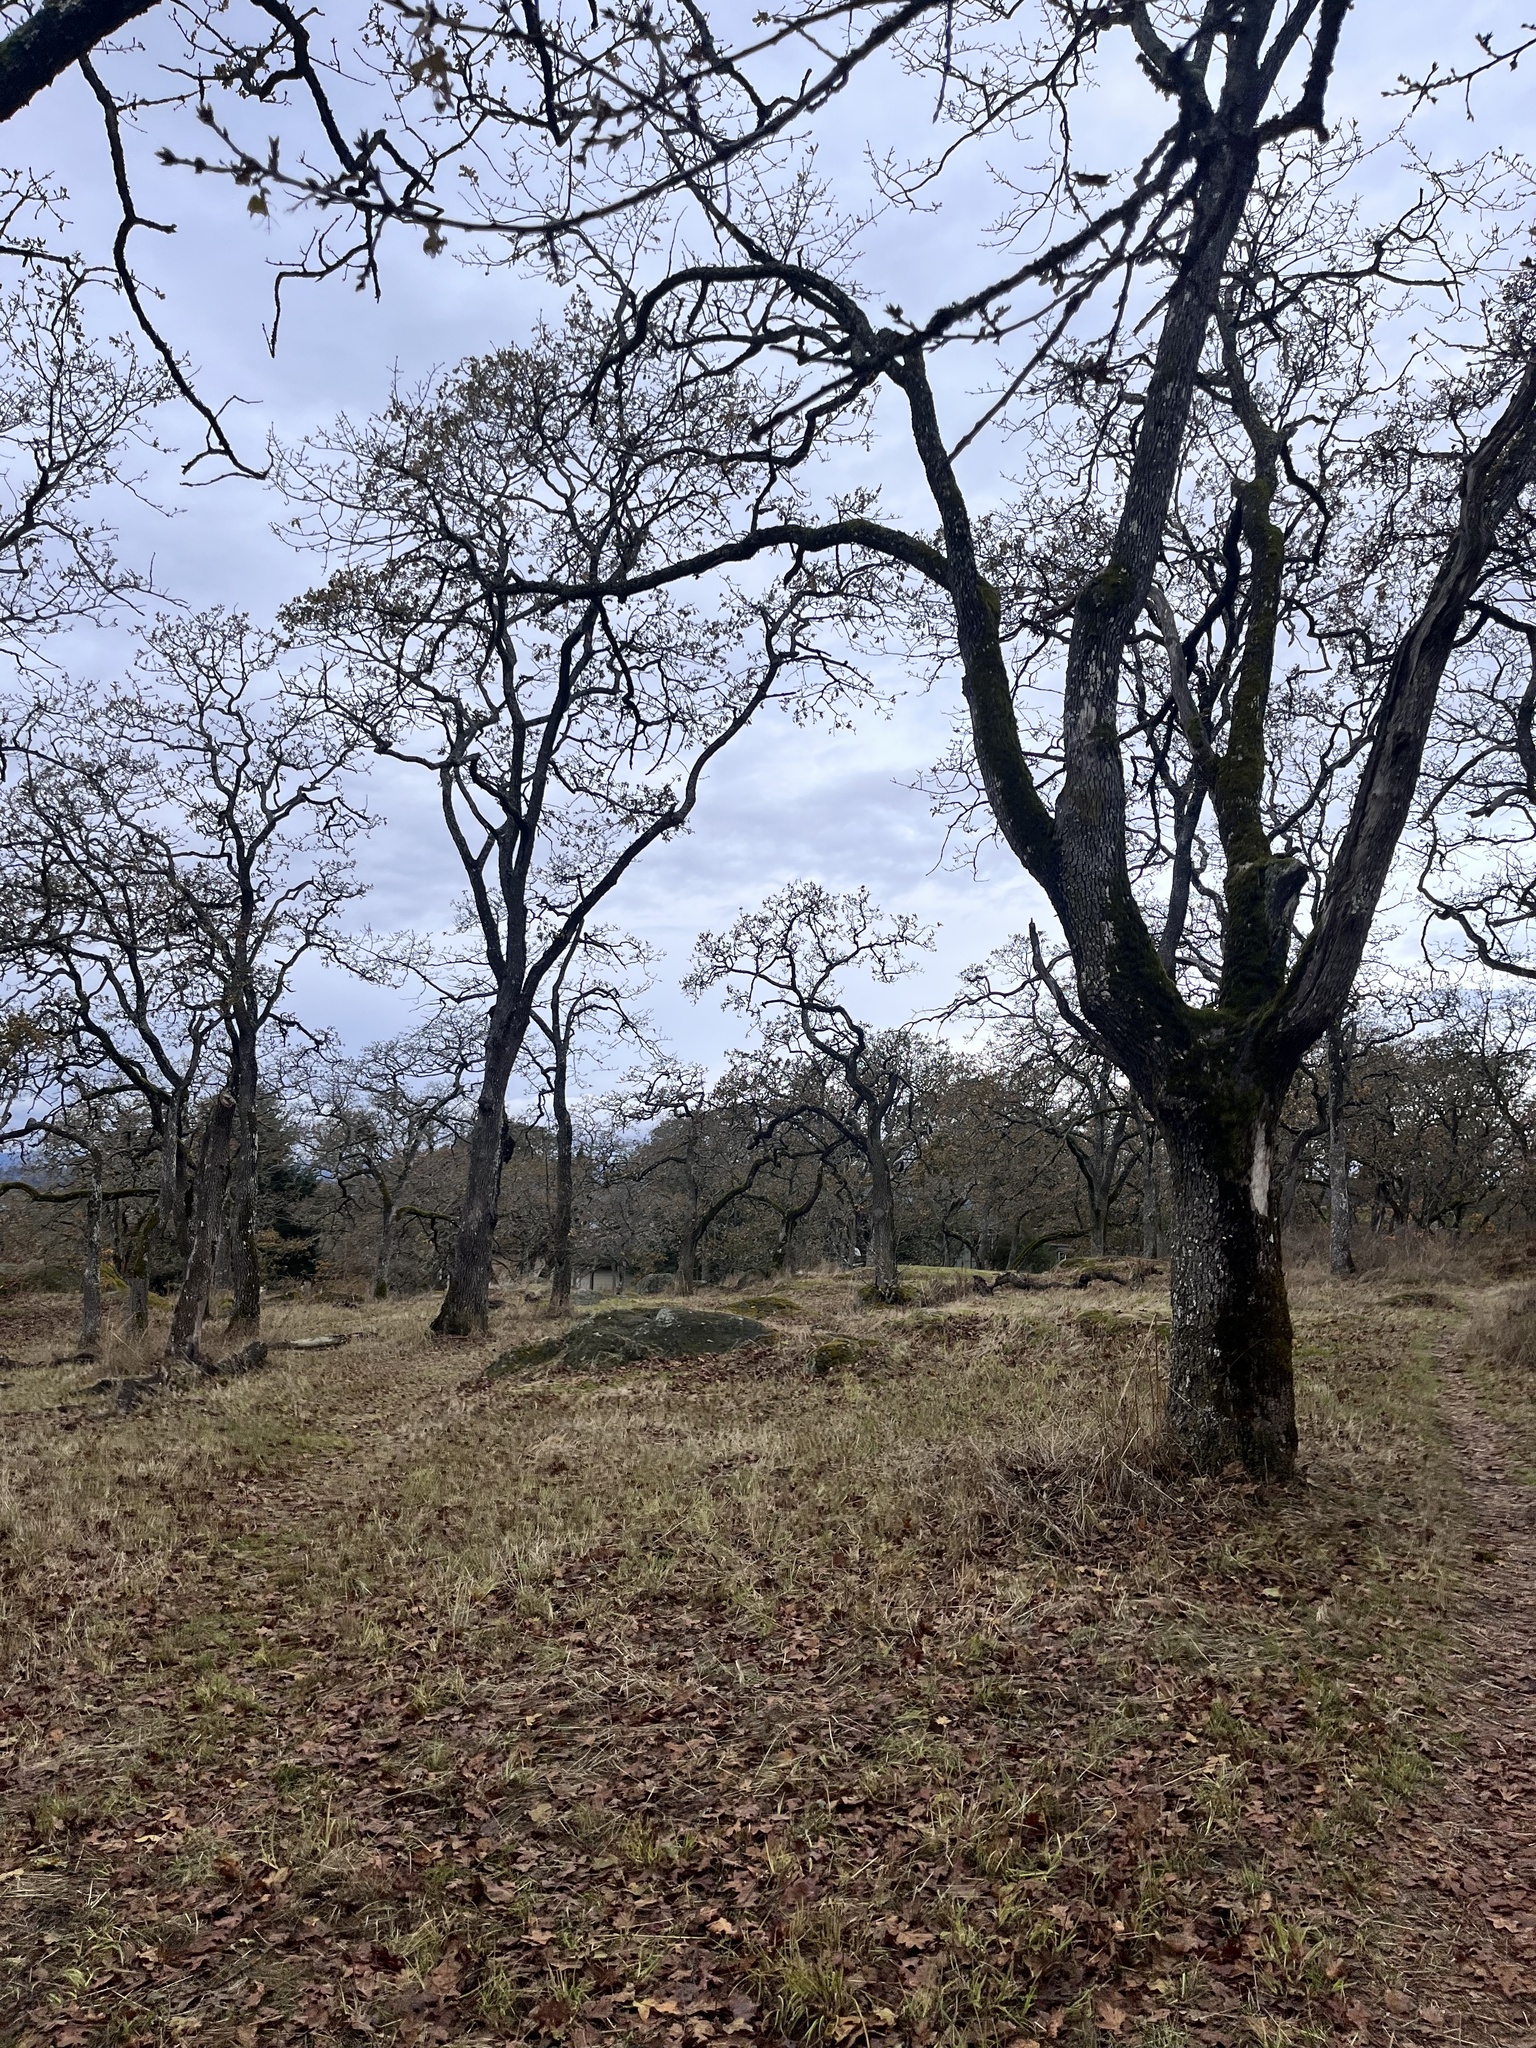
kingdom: Plantae
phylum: Tracheophyta
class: Magnoliopsida
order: Fagales
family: Fagaceae
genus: Quercus
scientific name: Quercus garryana
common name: Garry oak
